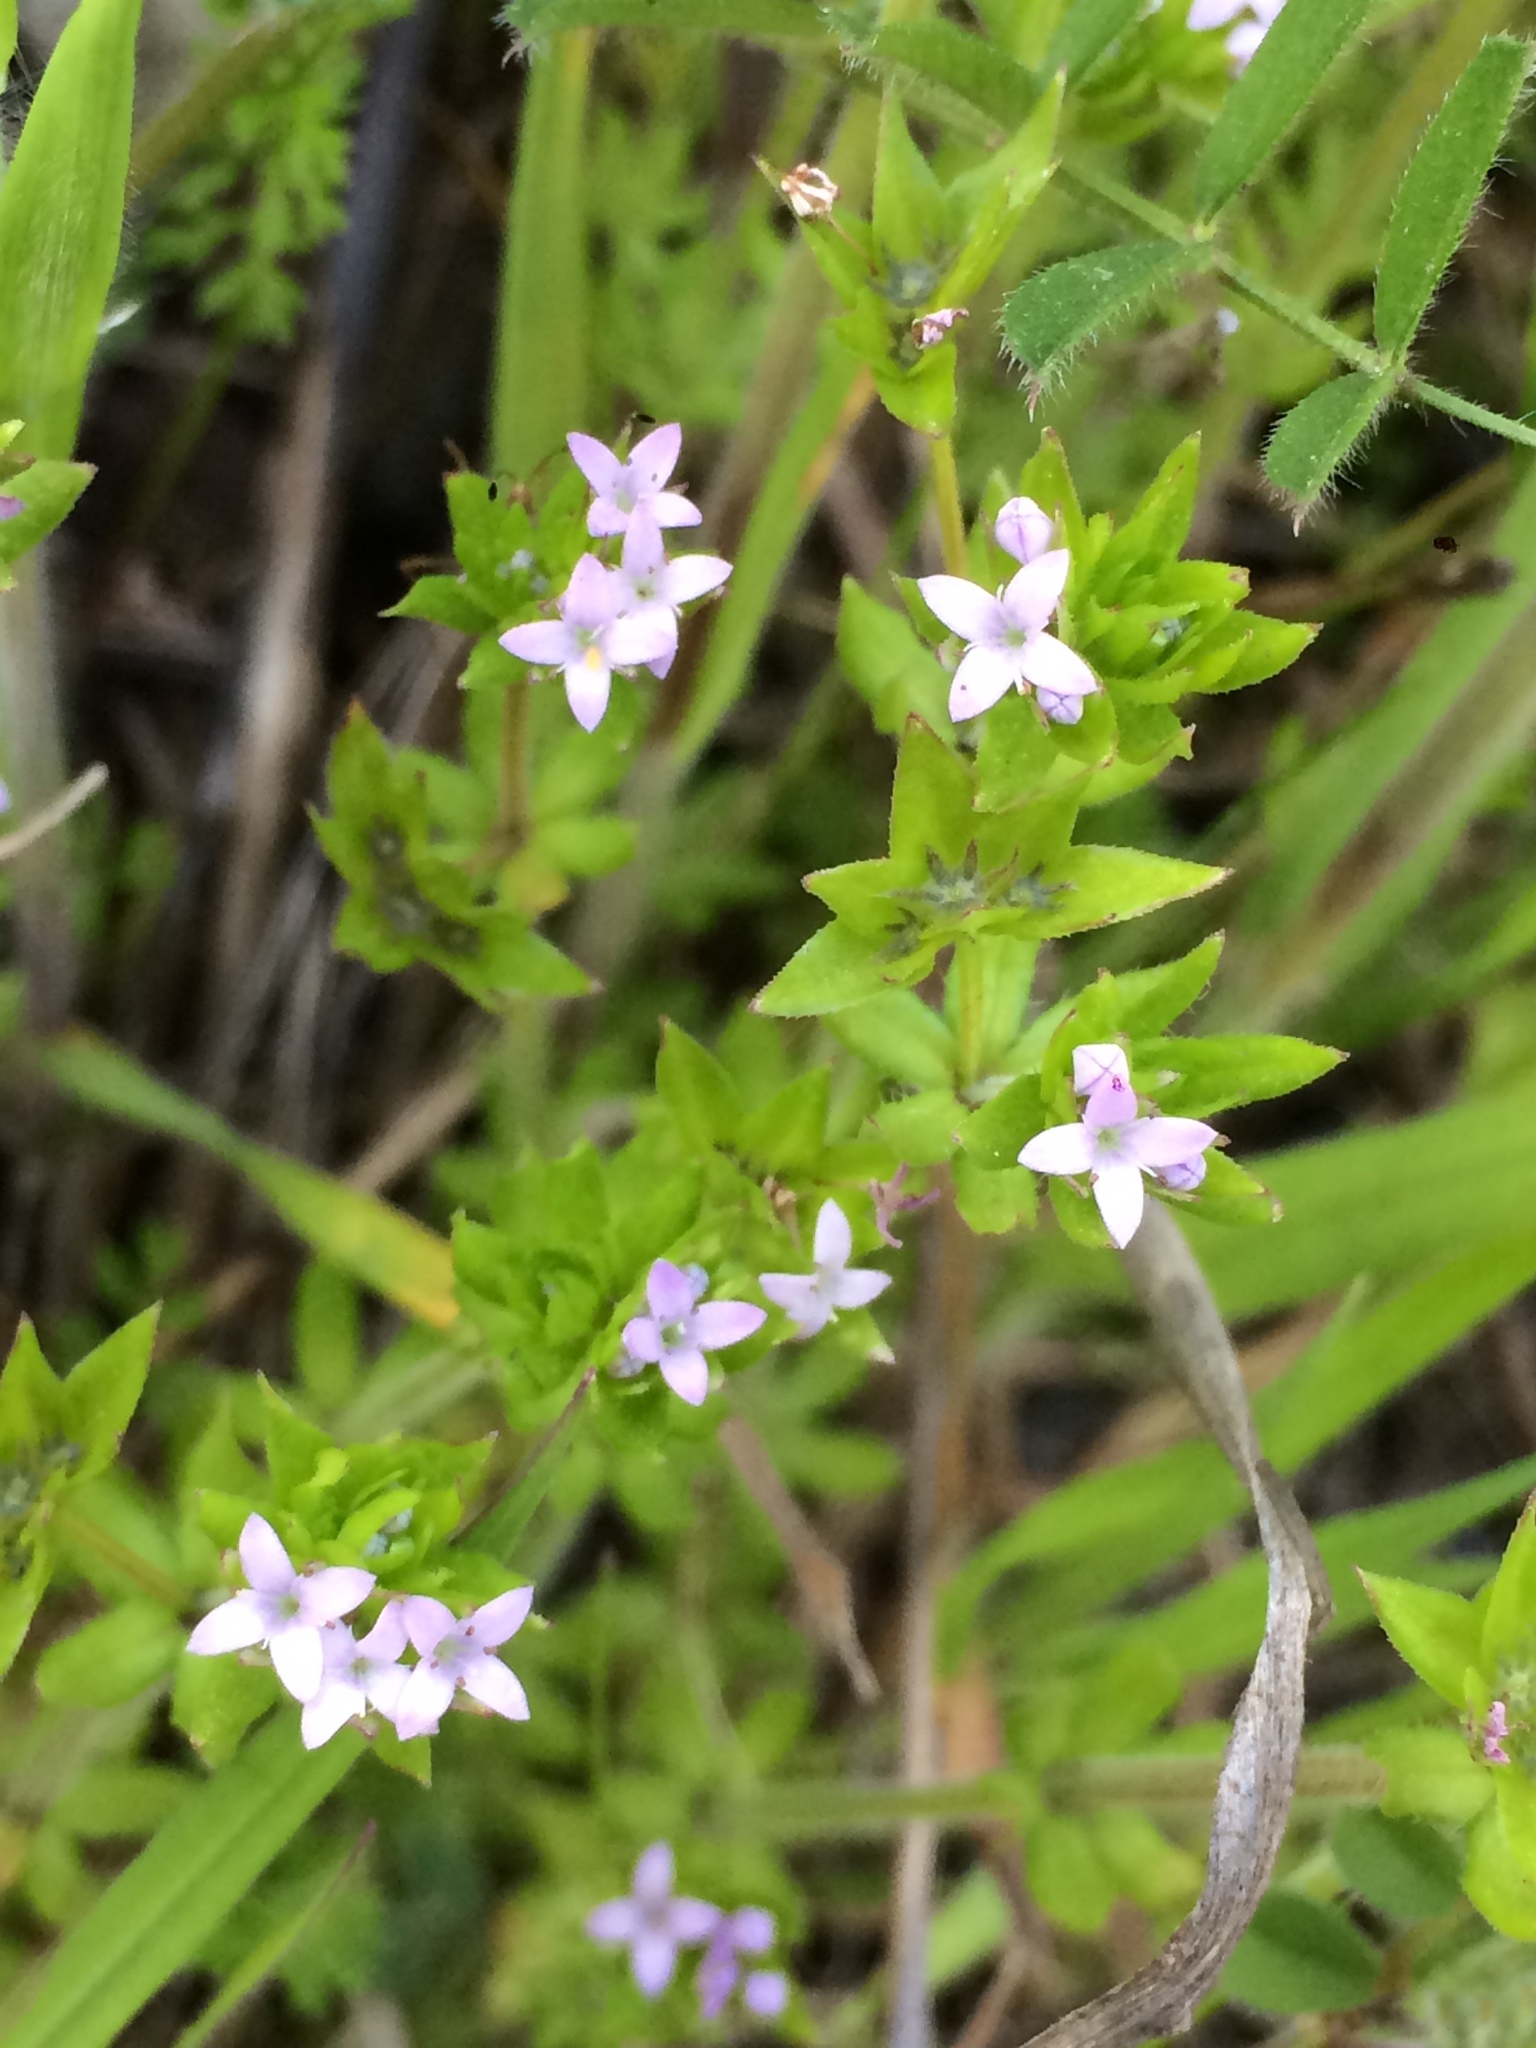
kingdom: Plantae
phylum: Tracheophyta
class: Magnoliopsida
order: Gentianales
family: Rubiaceae
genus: Sherardia
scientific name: Sherardia arvensis
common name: Field madder
